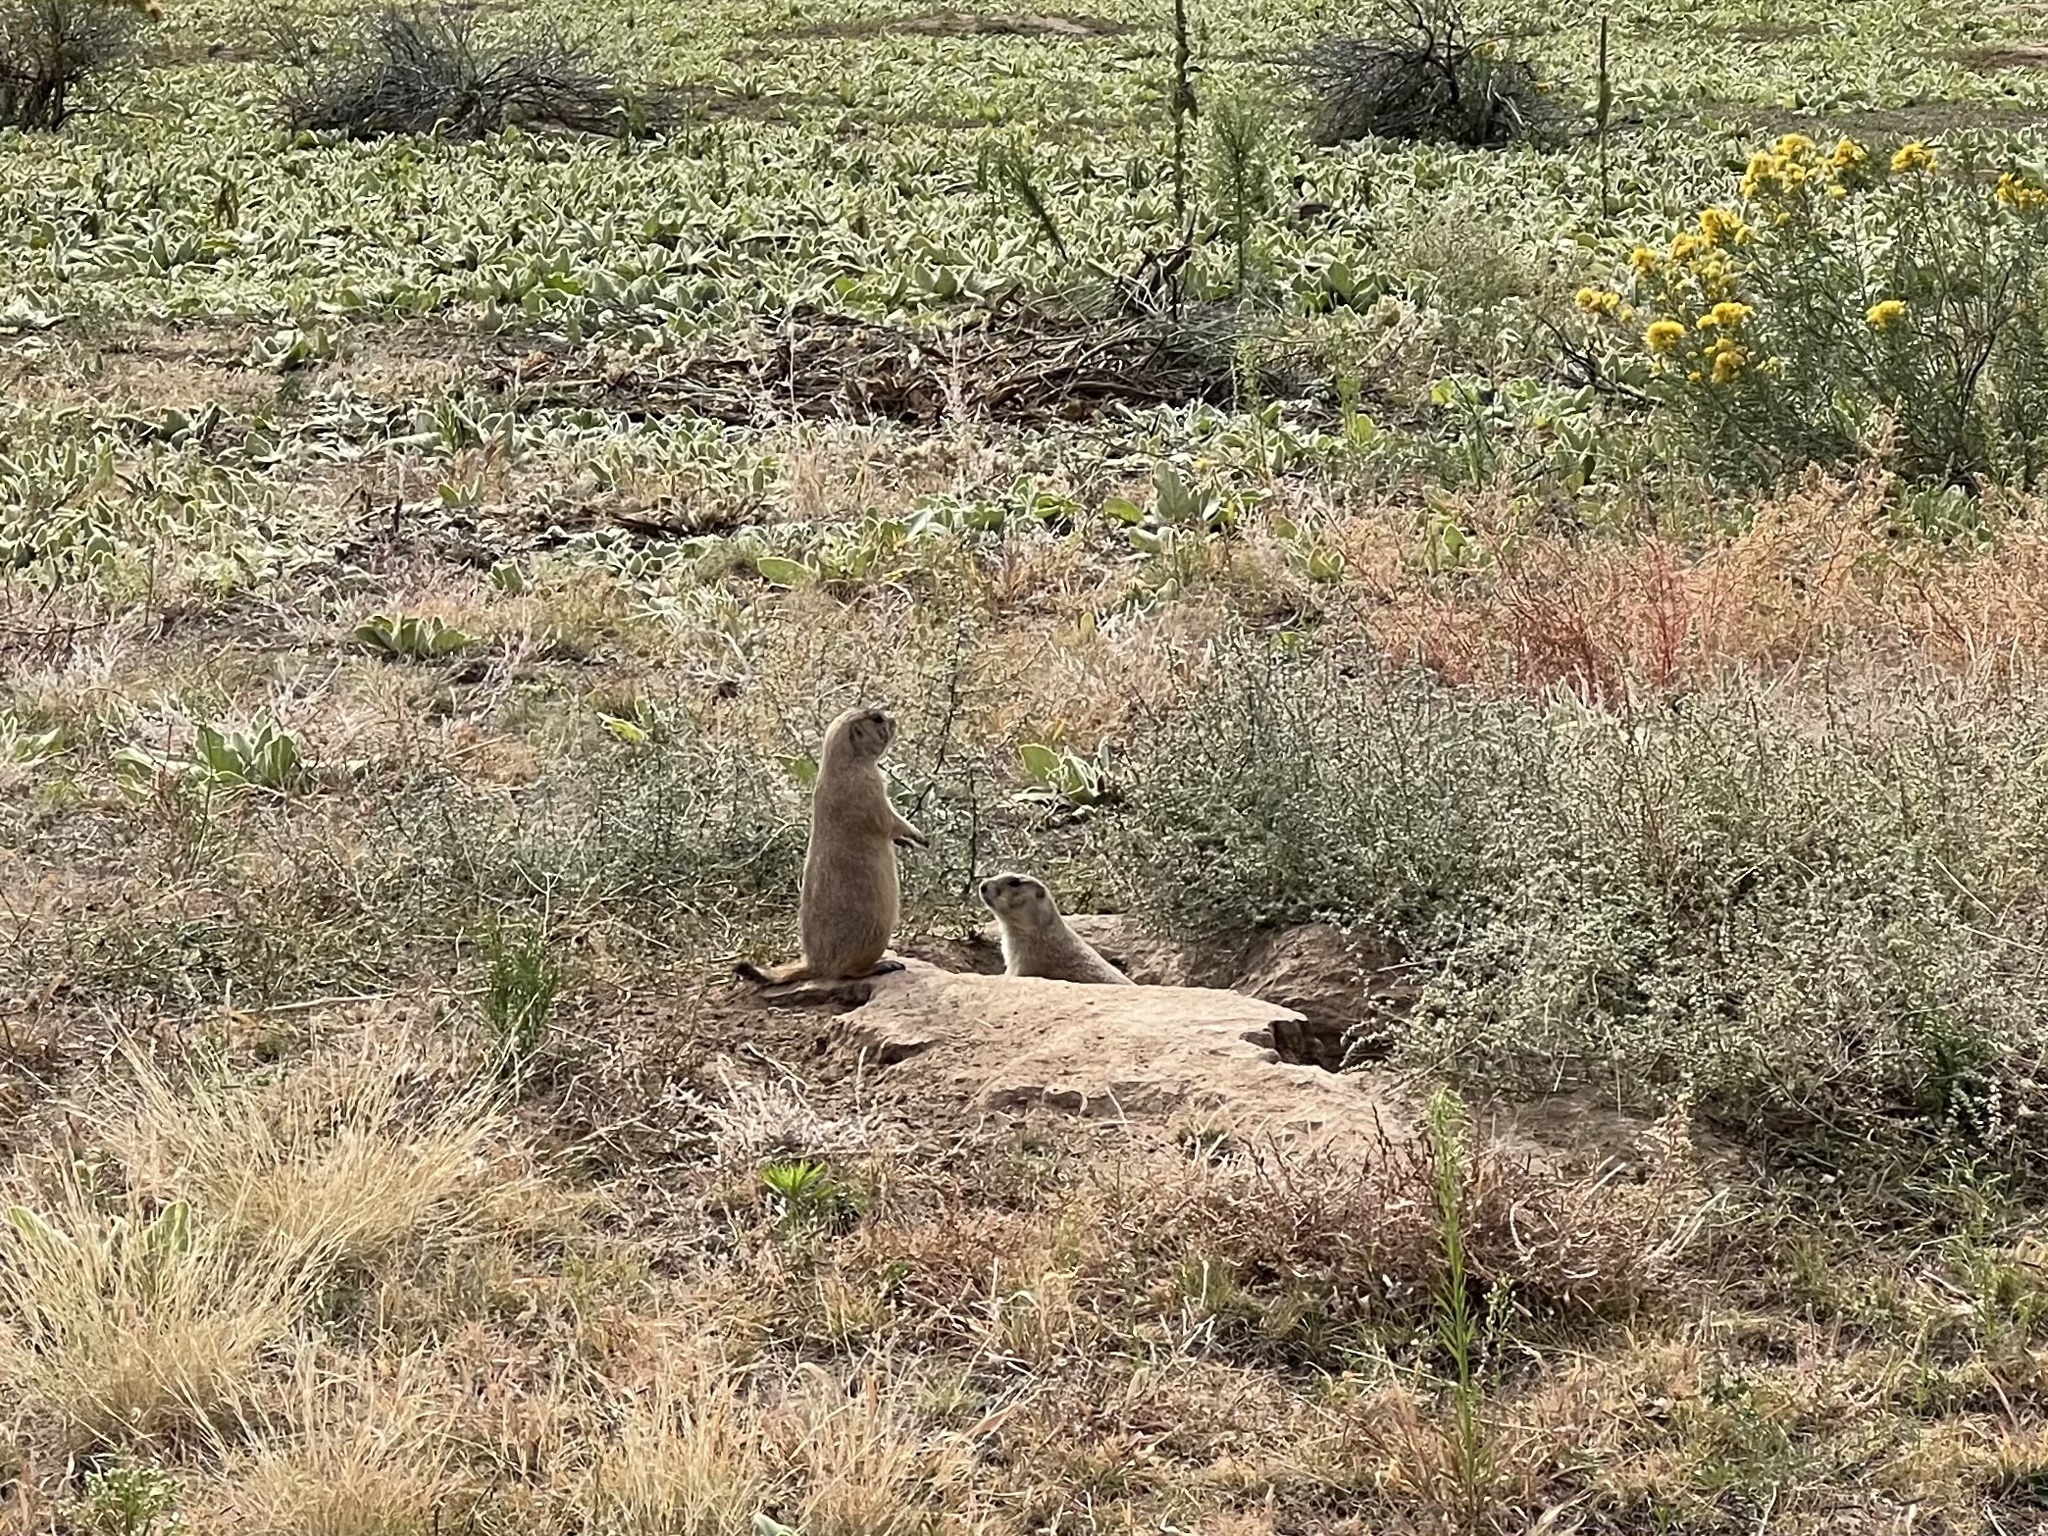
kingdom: Animalia
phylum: Chordata
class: Mammalia
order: Rodentia
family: Sciuridae
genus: Cynomys
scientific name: Cynomys ludovicianus
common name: Black-tailed prairie dog
